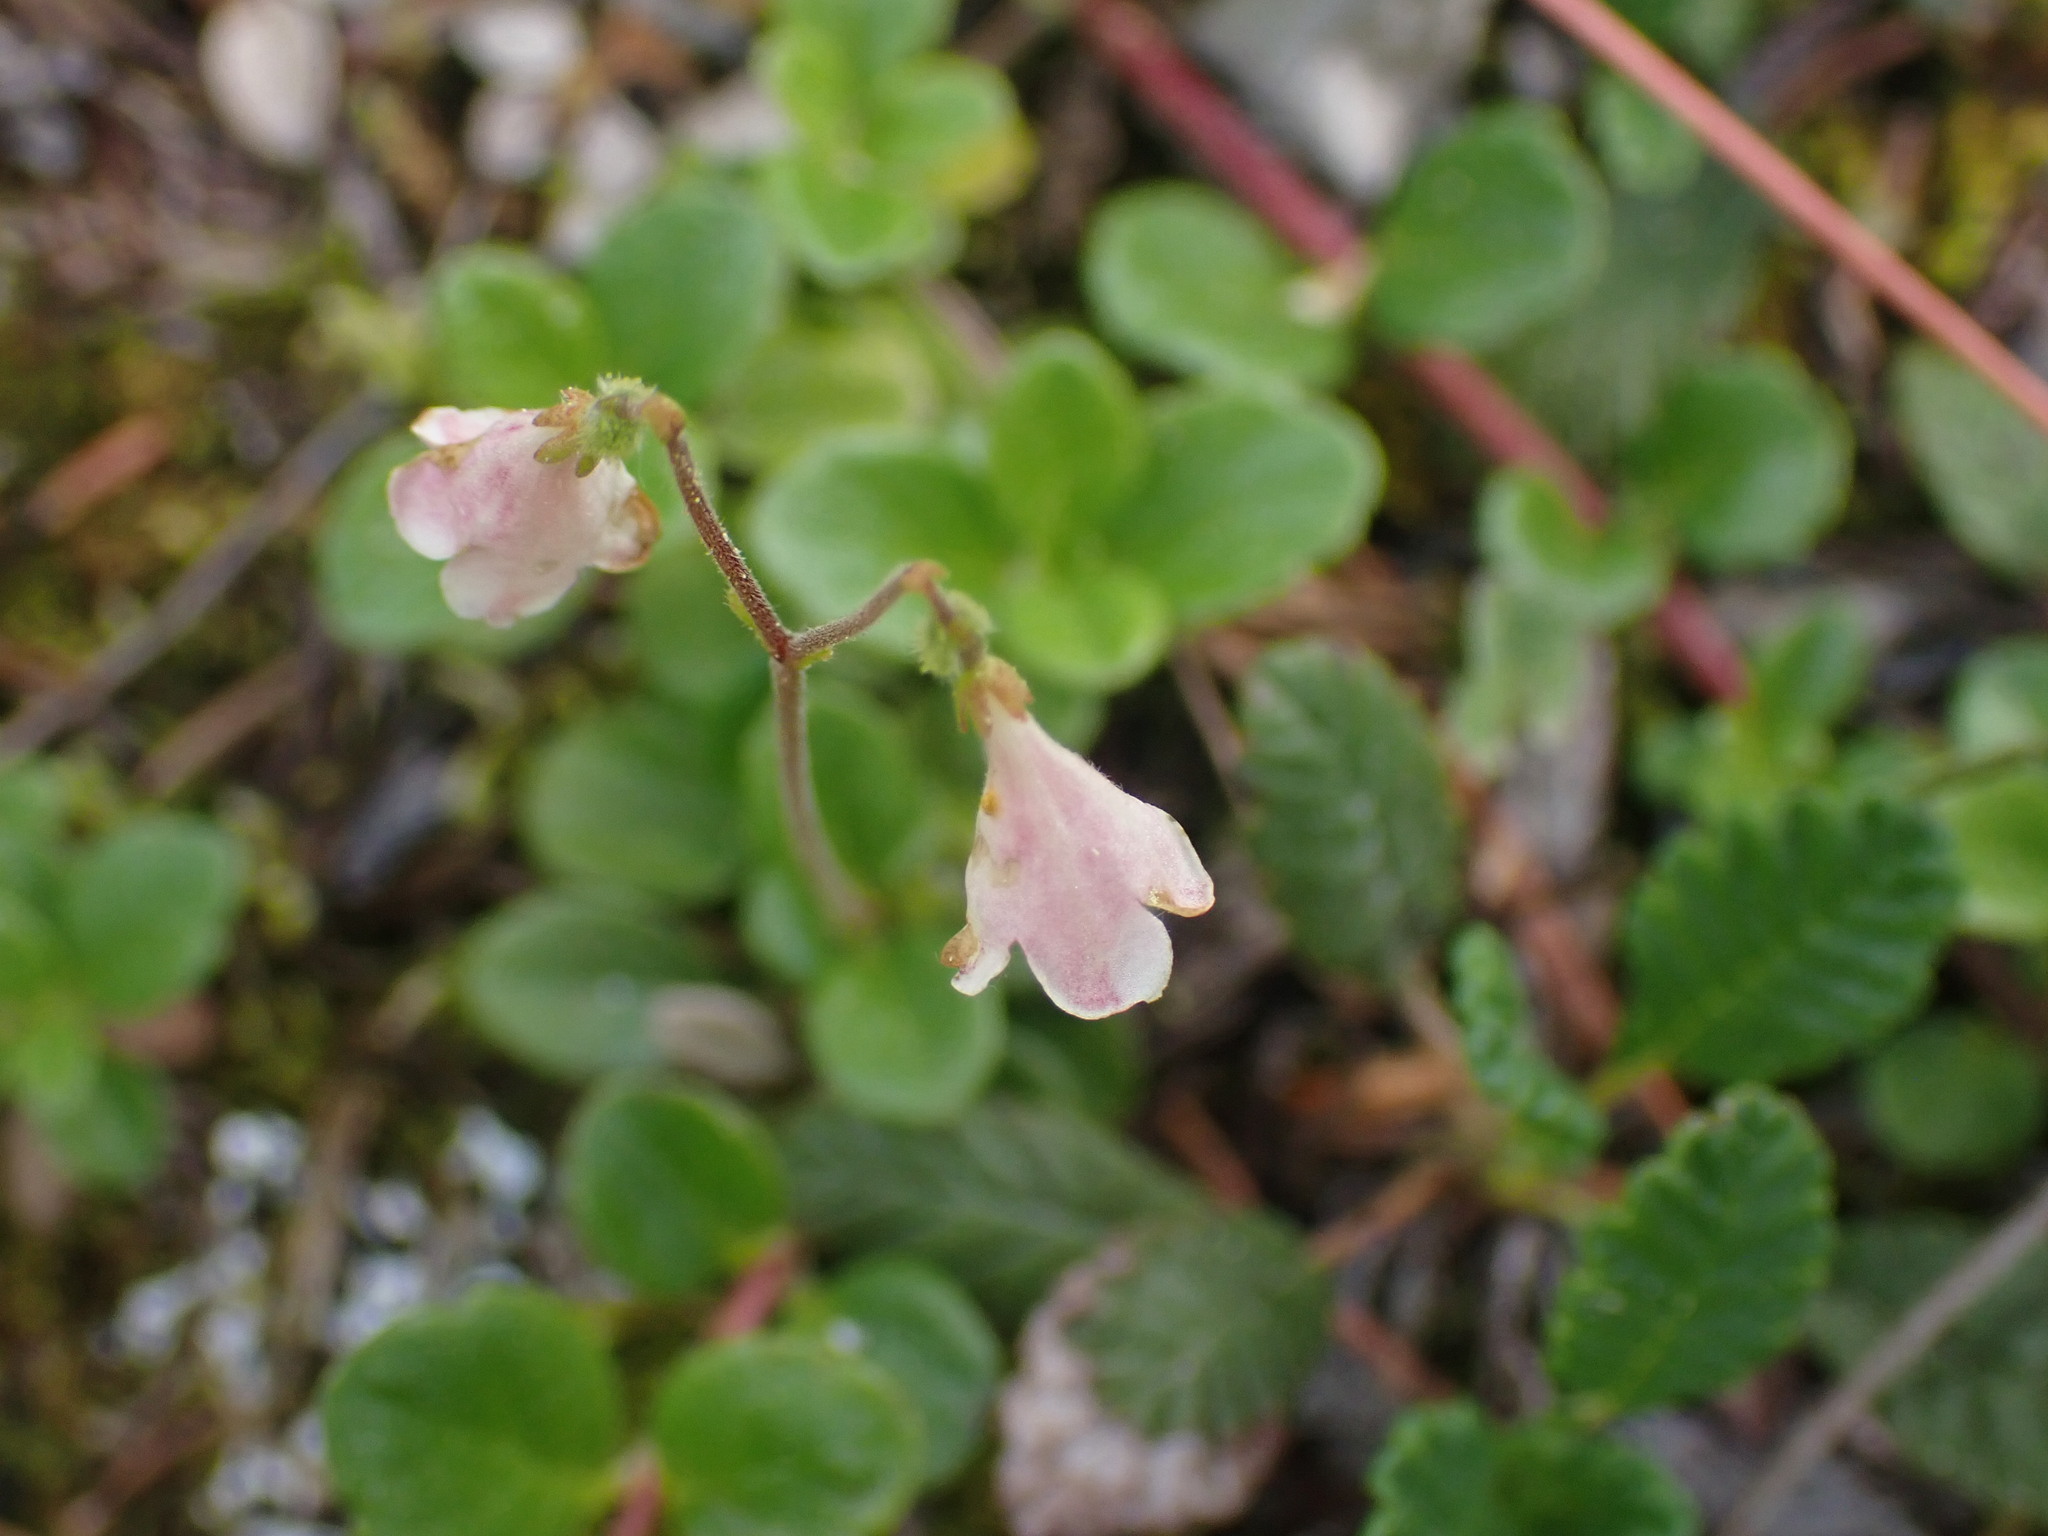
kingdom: Plantae
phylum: Tracheophyta
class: Magnoliopsida
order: Dipsacales
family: Caprifoliaceae
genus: Linnaea
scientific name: Linnaea borealis
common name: Twinflower
